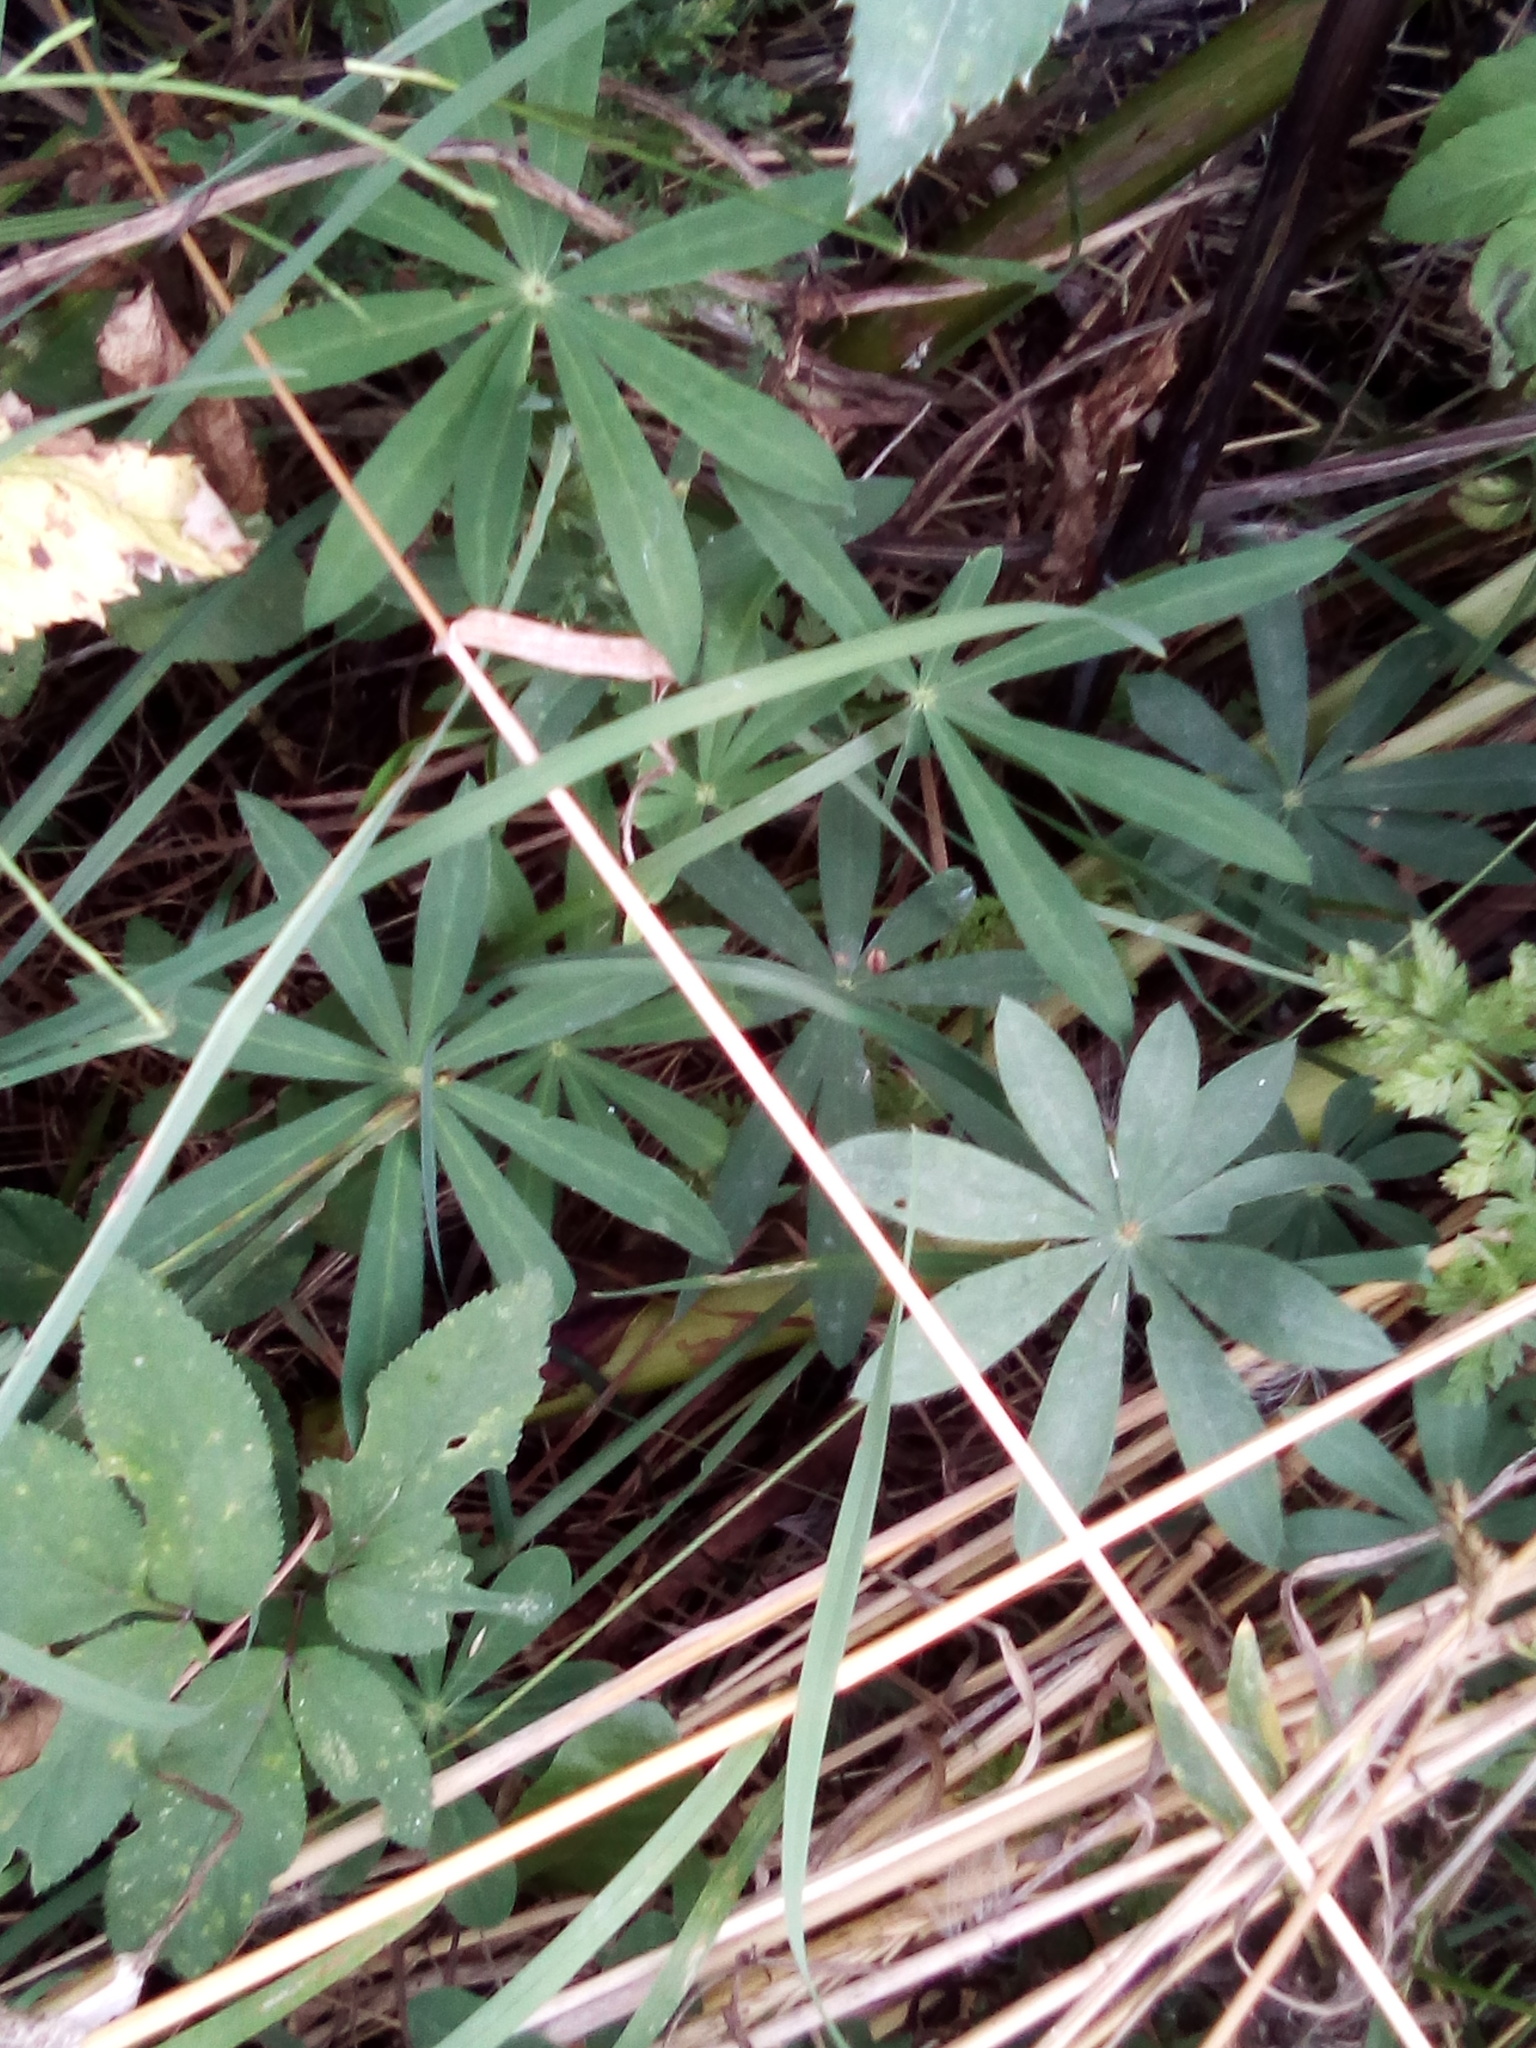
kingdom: Plantae
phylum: Tracheophyta
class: Magnoliopsida
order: Fabales
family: Fabaceae
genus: Lupinus
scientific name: Lupinus polyphyllus
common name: Garden lupin
